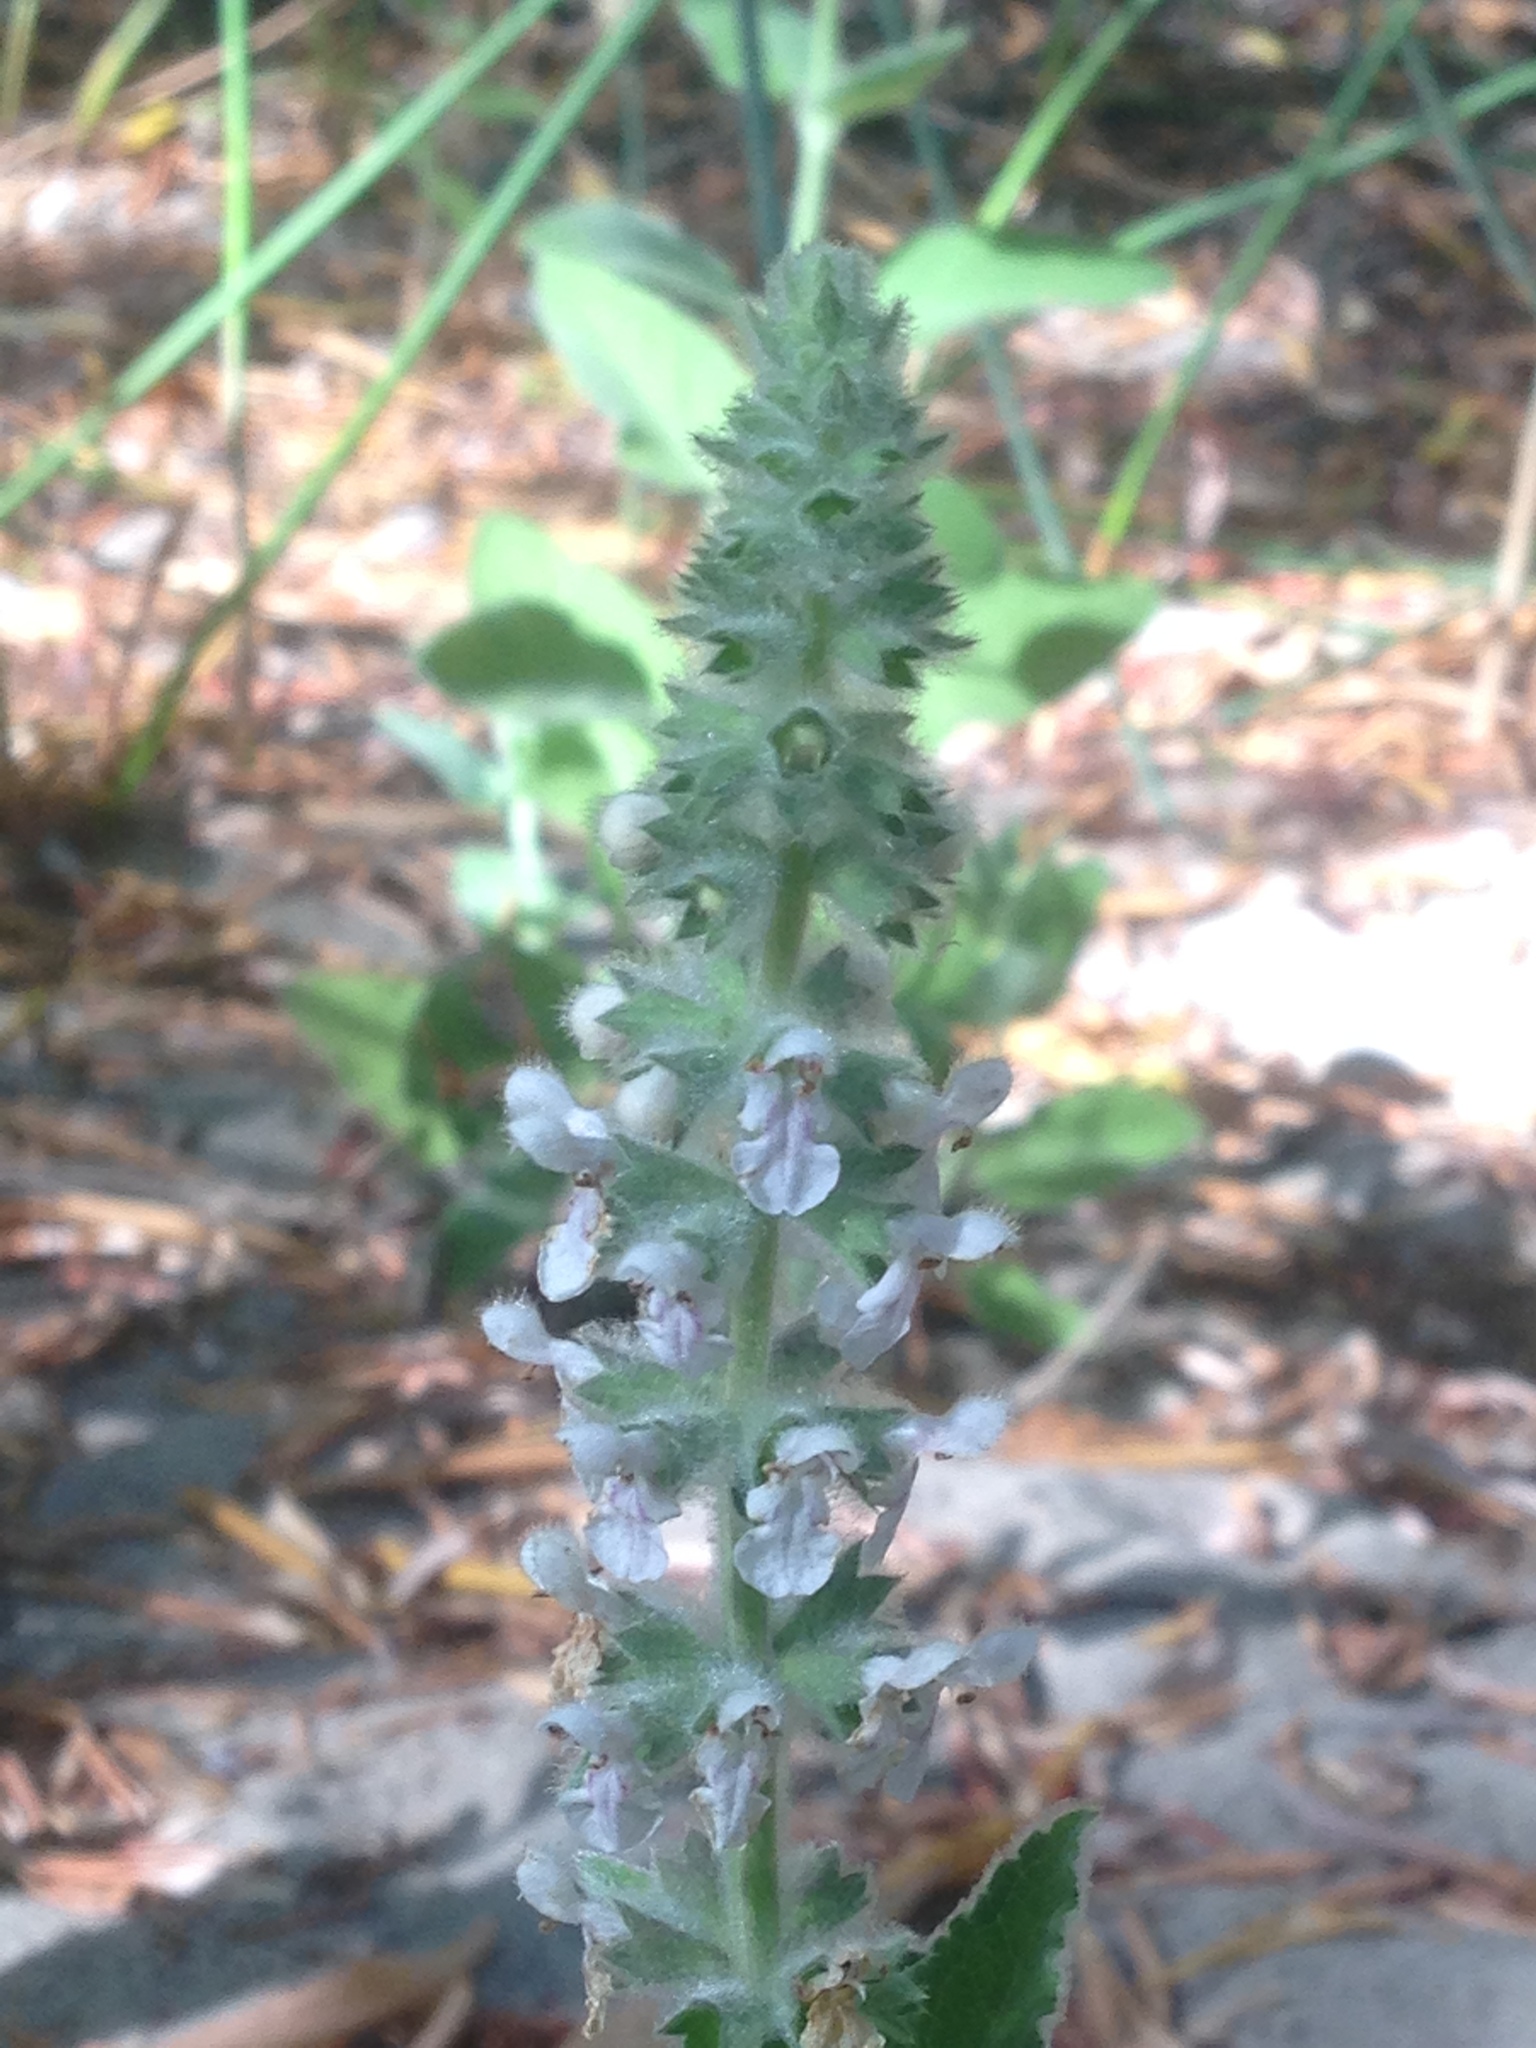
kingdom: Plantae
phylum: Tracheophyta
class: Magnoliopsida
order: Lamiales
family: Lamiaceae
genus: Stachys
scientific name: Stachys albens
